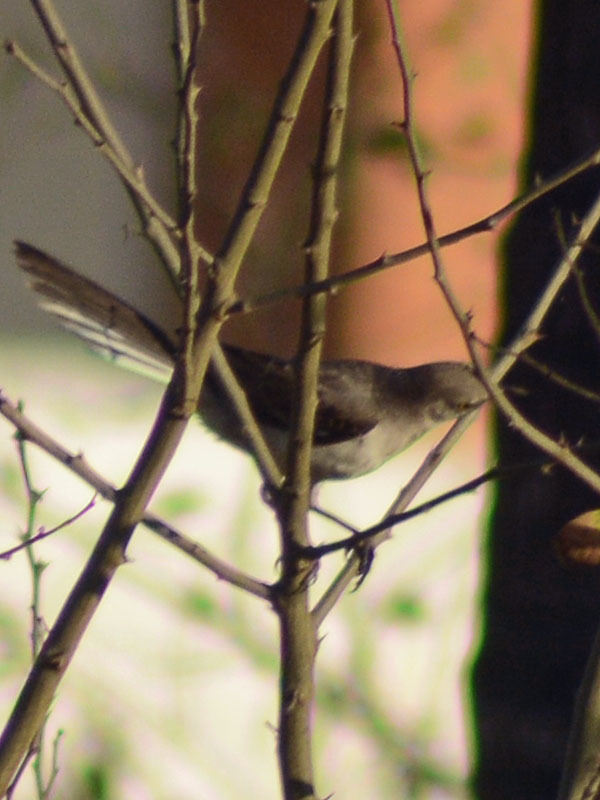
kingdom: Animalia
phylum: Chordata
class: Aves
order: Passeriformes
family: Mimidae
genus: Mimus
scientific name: Mimus polyglottos
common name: Northern mockingbird
